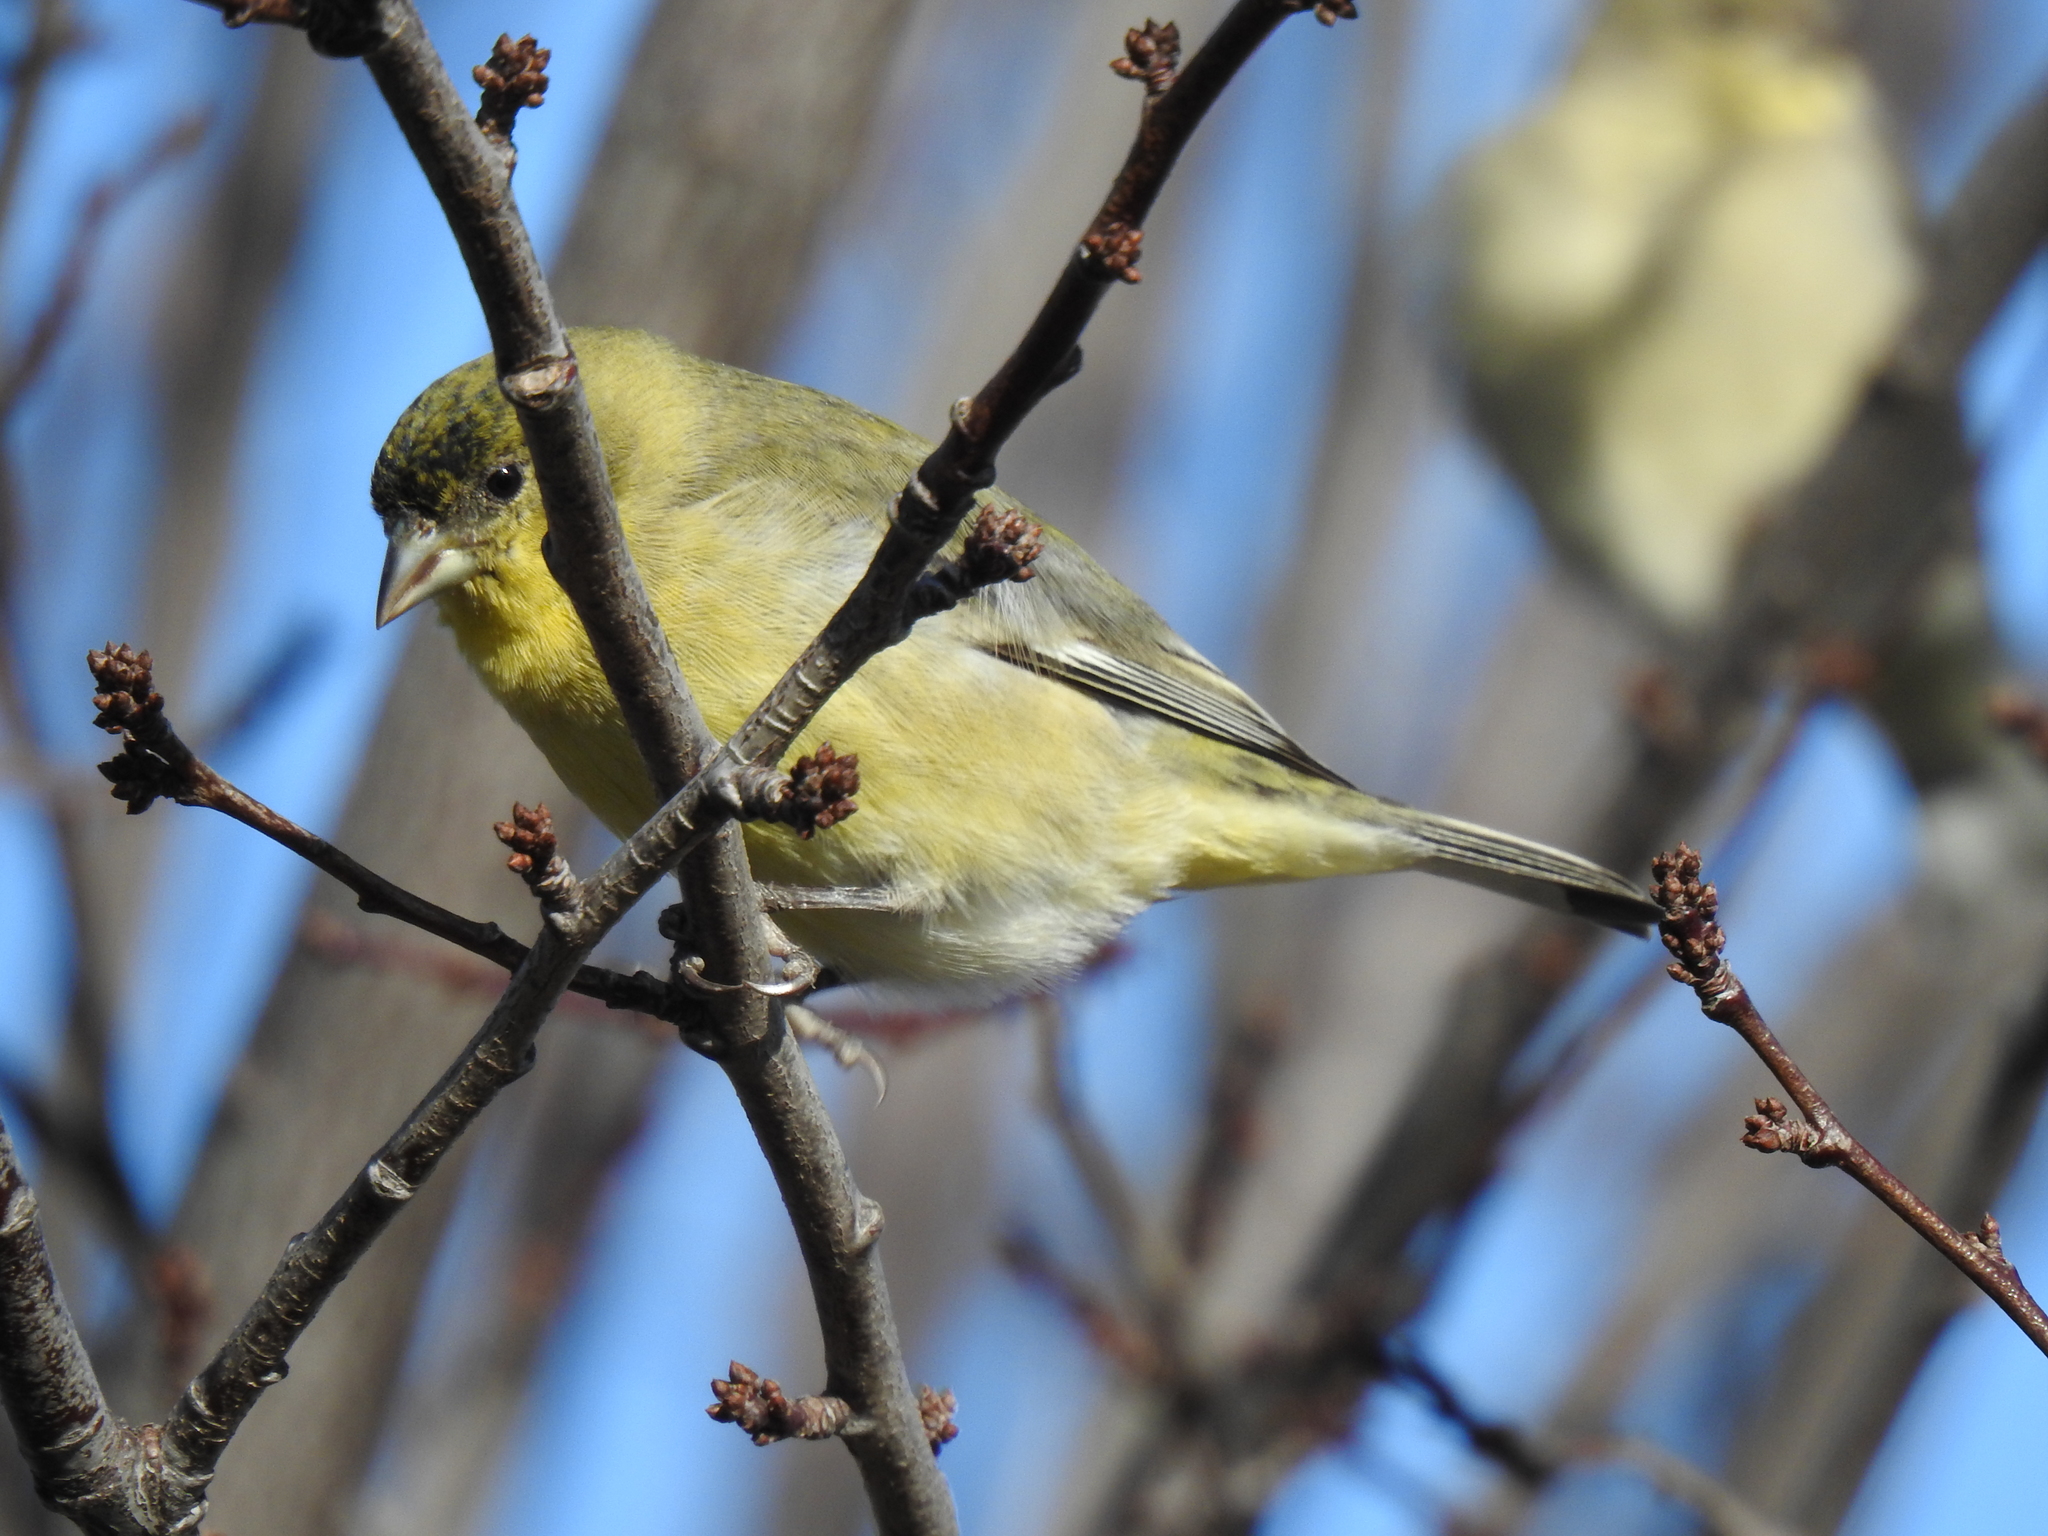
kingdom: Animalia
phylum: Chordata
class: Aves
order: Passeriformes
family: Fringillidae
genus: Spinus
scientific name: Spinus psaltria
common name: Lesser goldfinch
